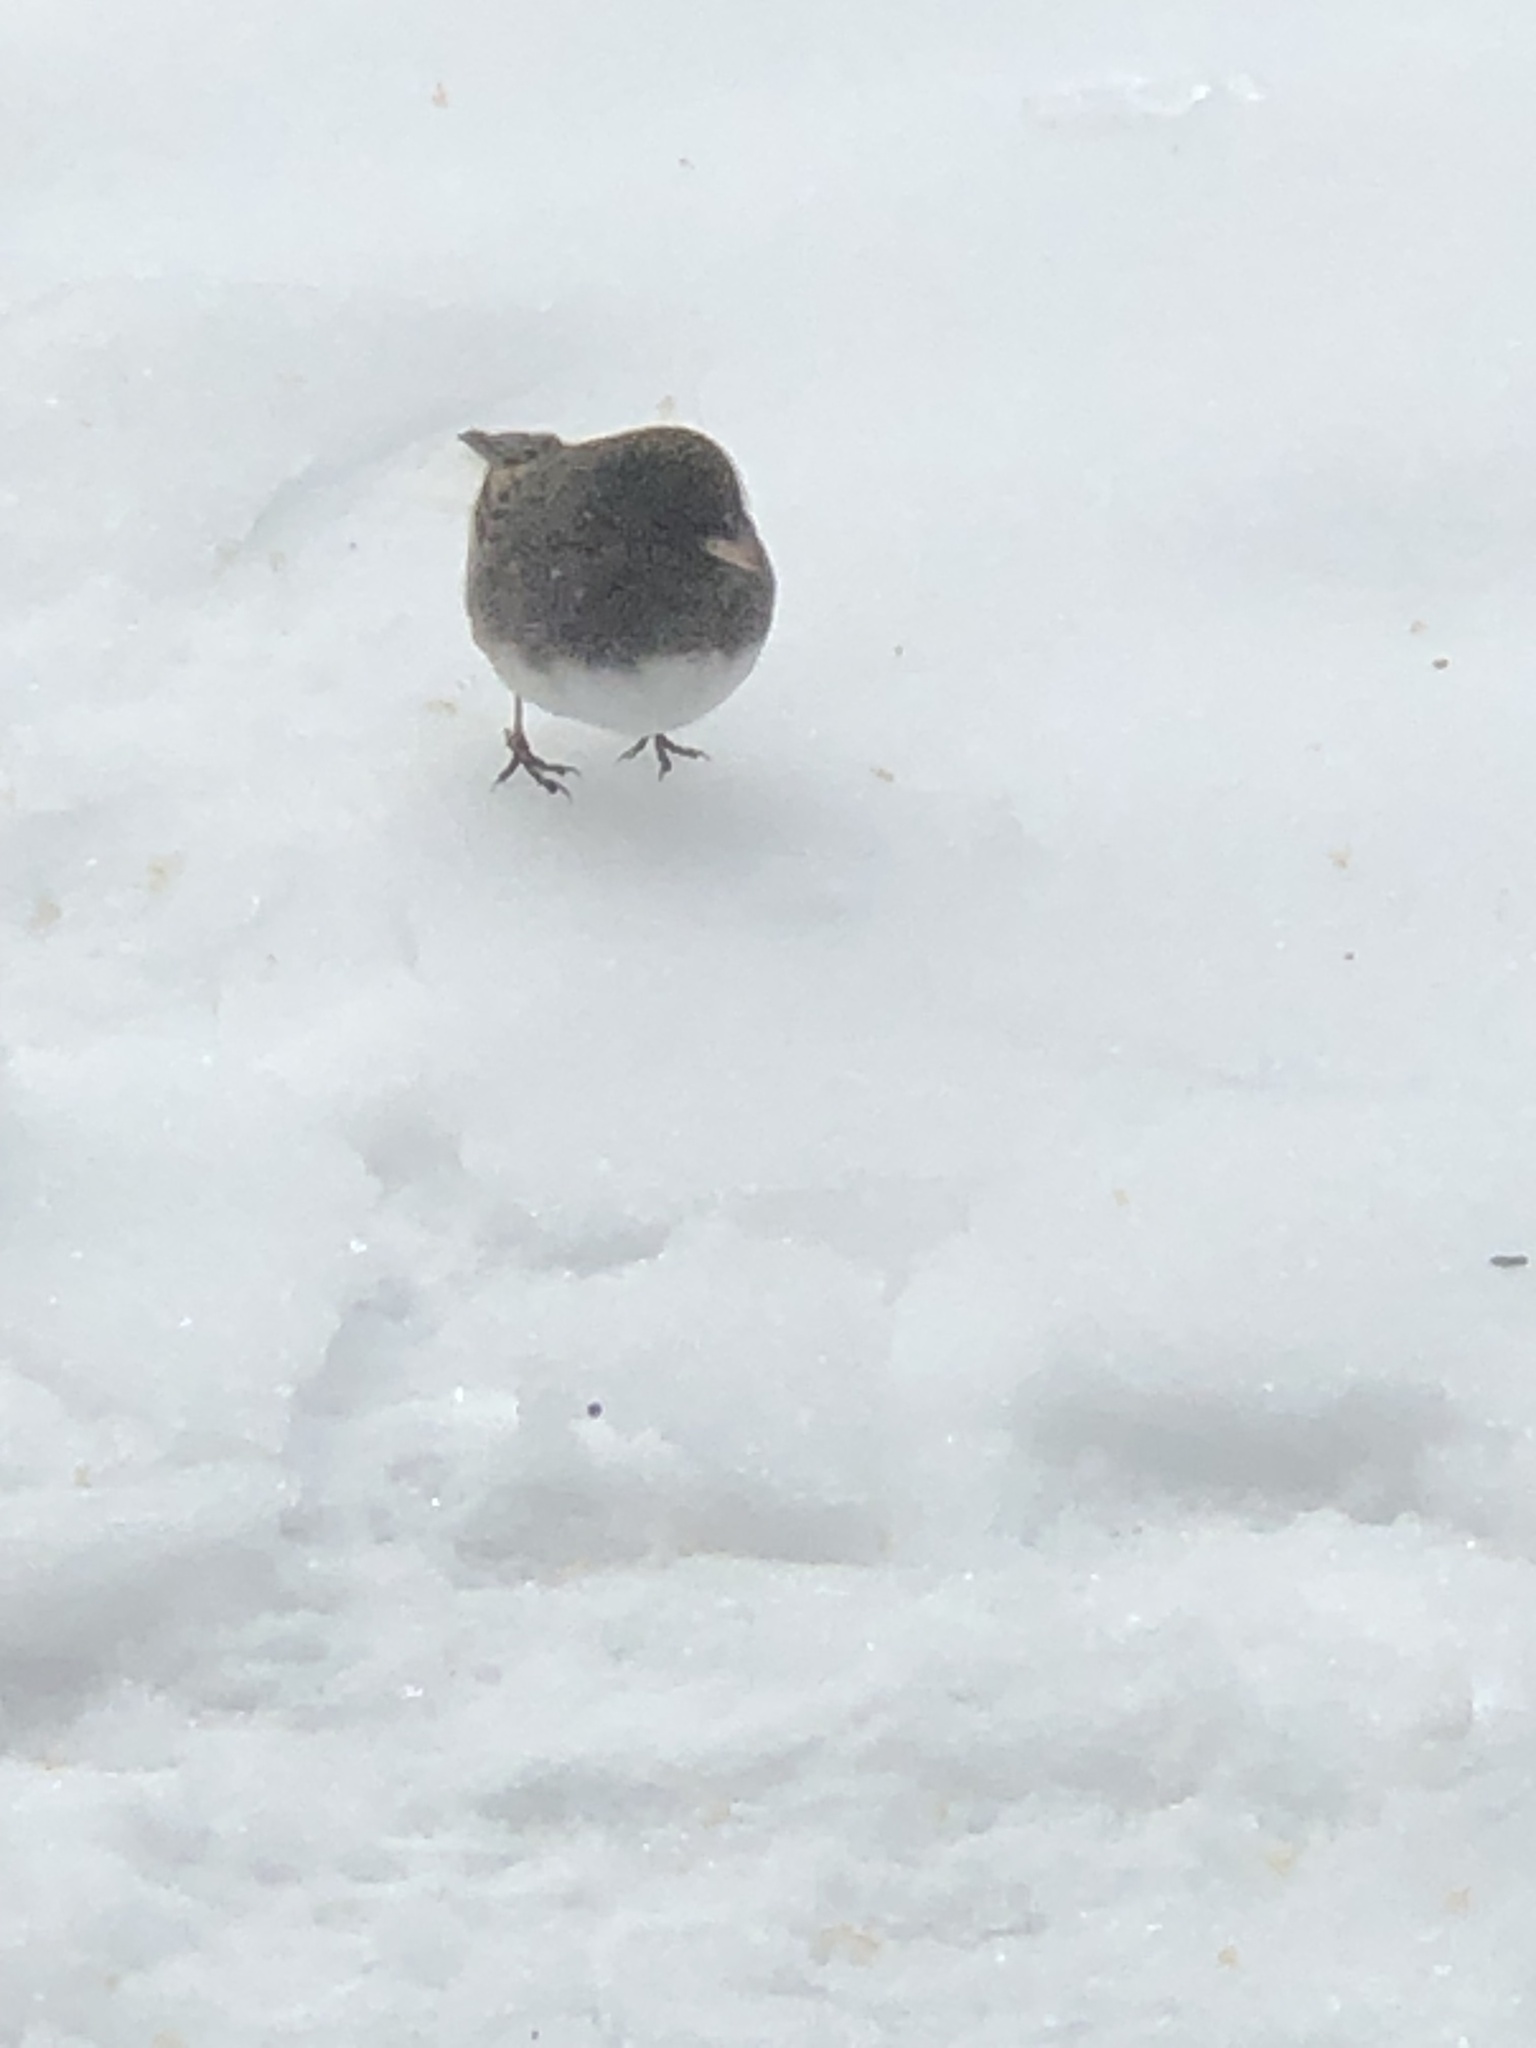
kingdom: Animalia
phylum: Chordata
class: Aves
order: Passeriformes
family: Passerellidae
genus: Junco
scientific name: Junco hyemalis
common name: Dark-eyed junco
